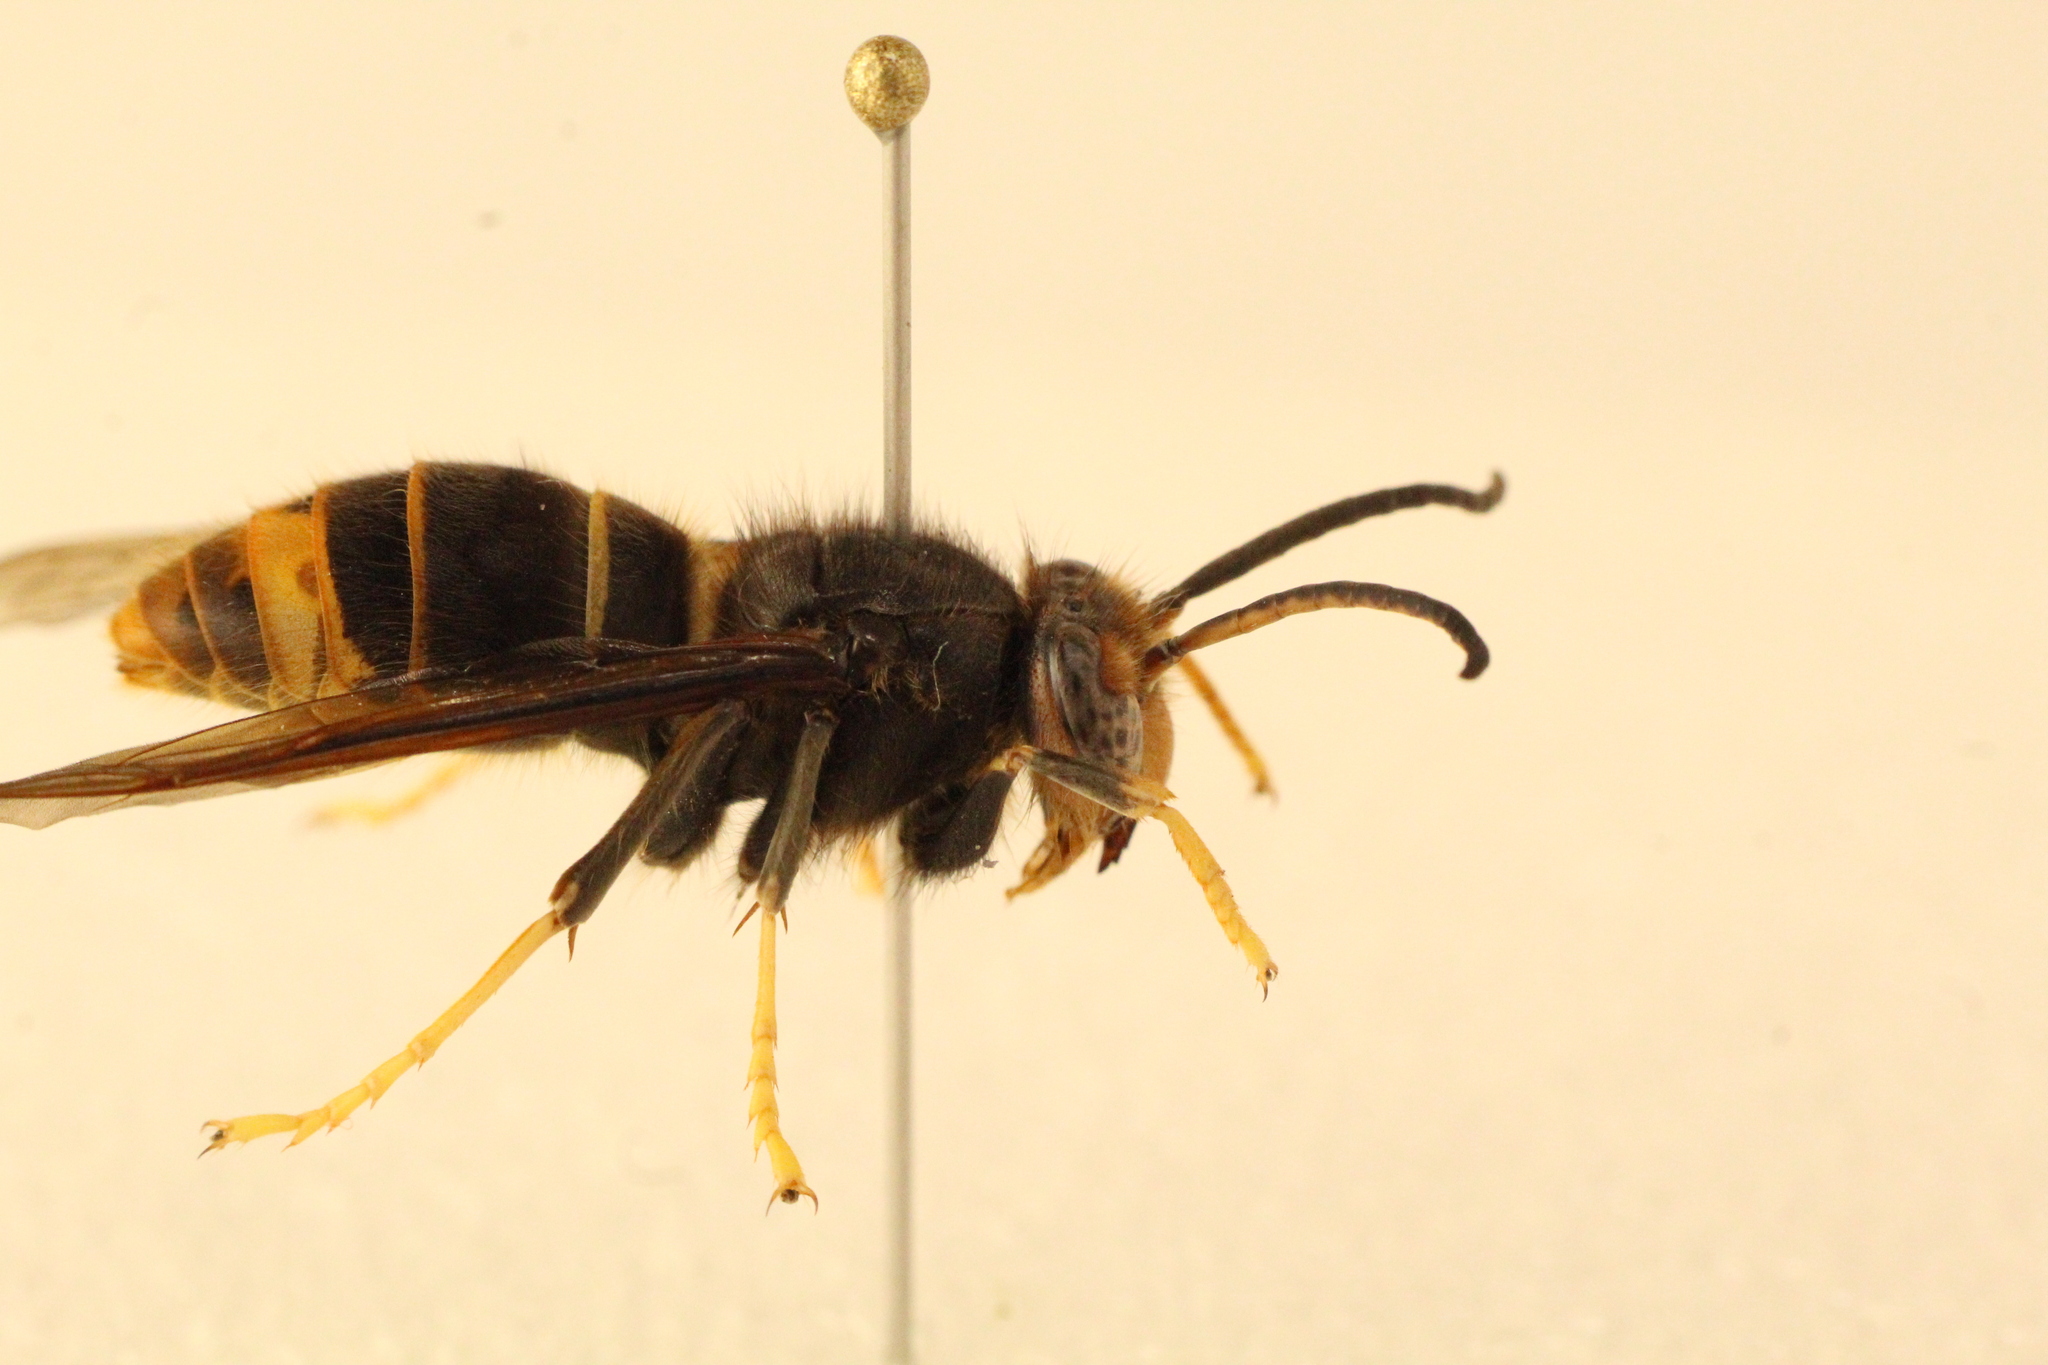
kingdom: Animalia
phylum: Arthropoda
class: Insecta
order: Hymenoptera
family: Vespidae
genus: Vespa
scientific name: Vespa velutina
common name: Asian hornet
